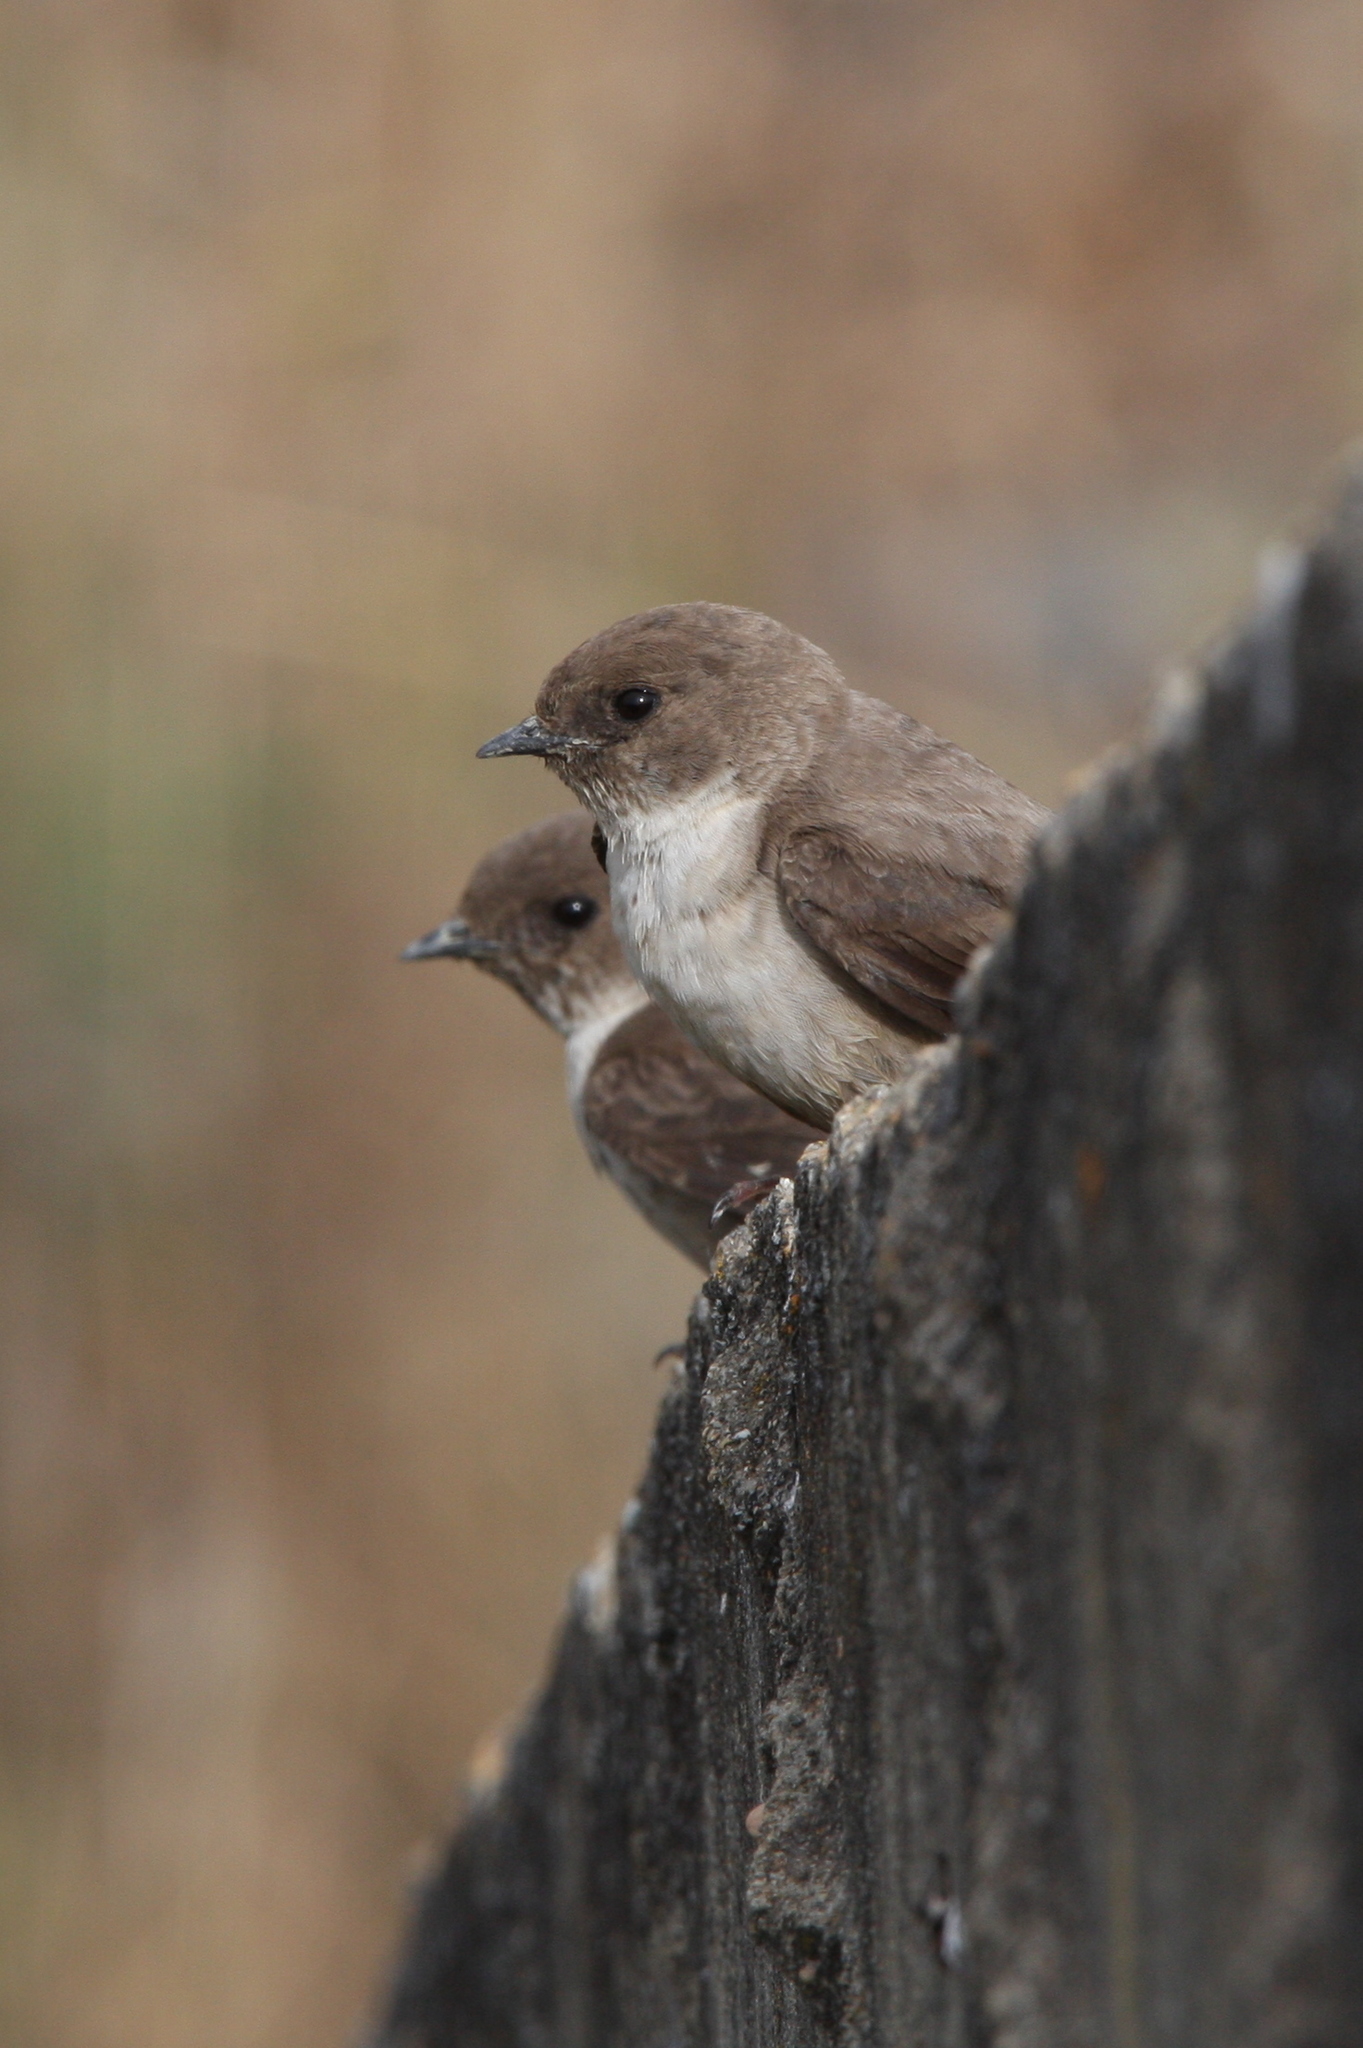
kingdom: Animalia
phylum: Chordata
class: Aves
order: Passeriformes
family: Hirundinidae
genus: Ptyonoprogne
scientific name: Ptyonoprogne rupestris
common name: Eurasian crag martin
